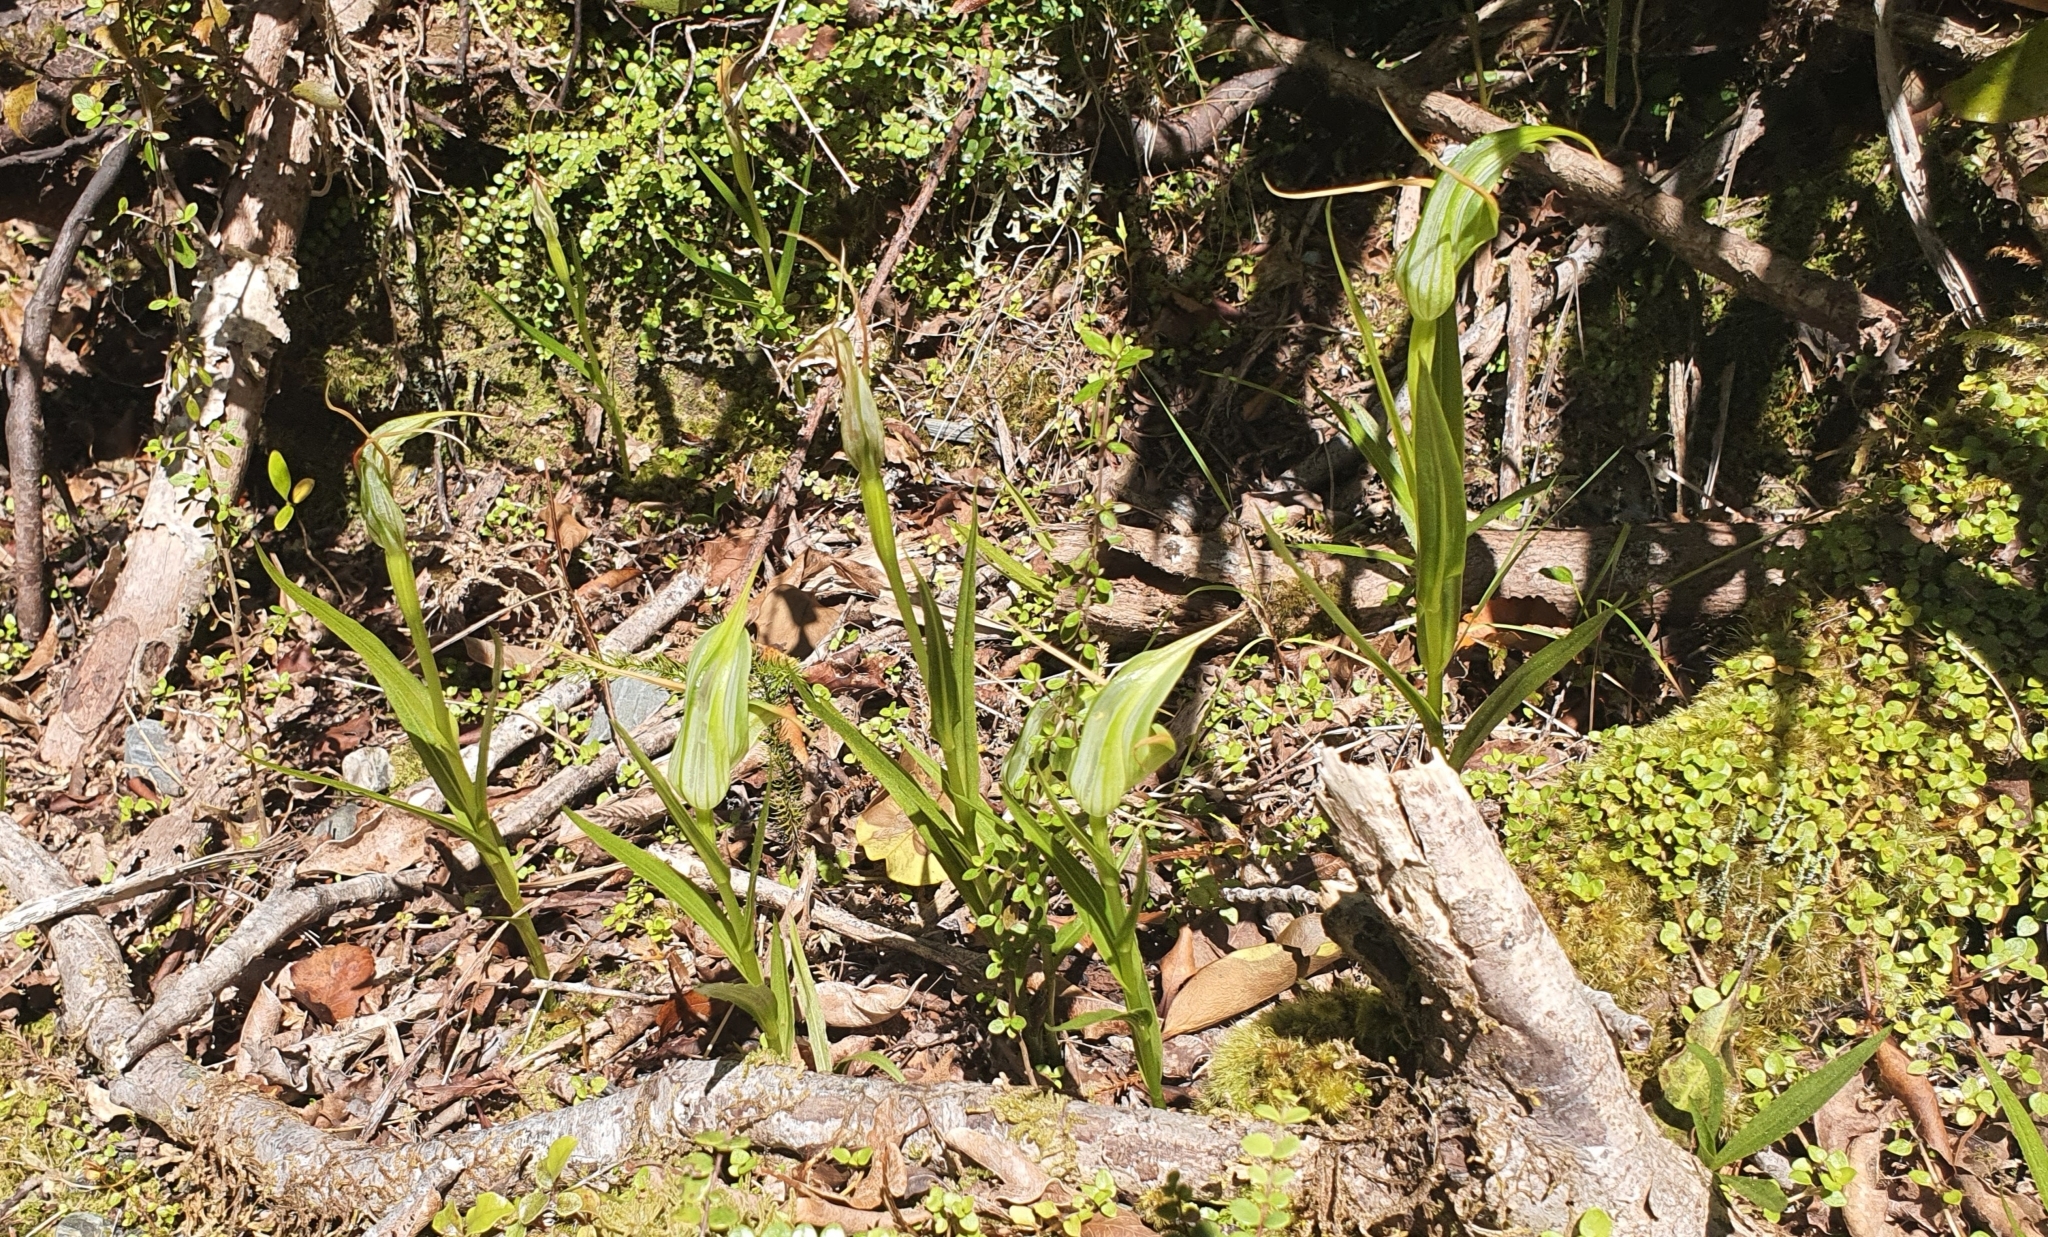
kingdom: Plantae
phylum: Tracheophyta
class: Liliopsida
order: Asparagales
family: Orchidaceae
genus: Pterostylis
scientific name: Pterostylis banksii
